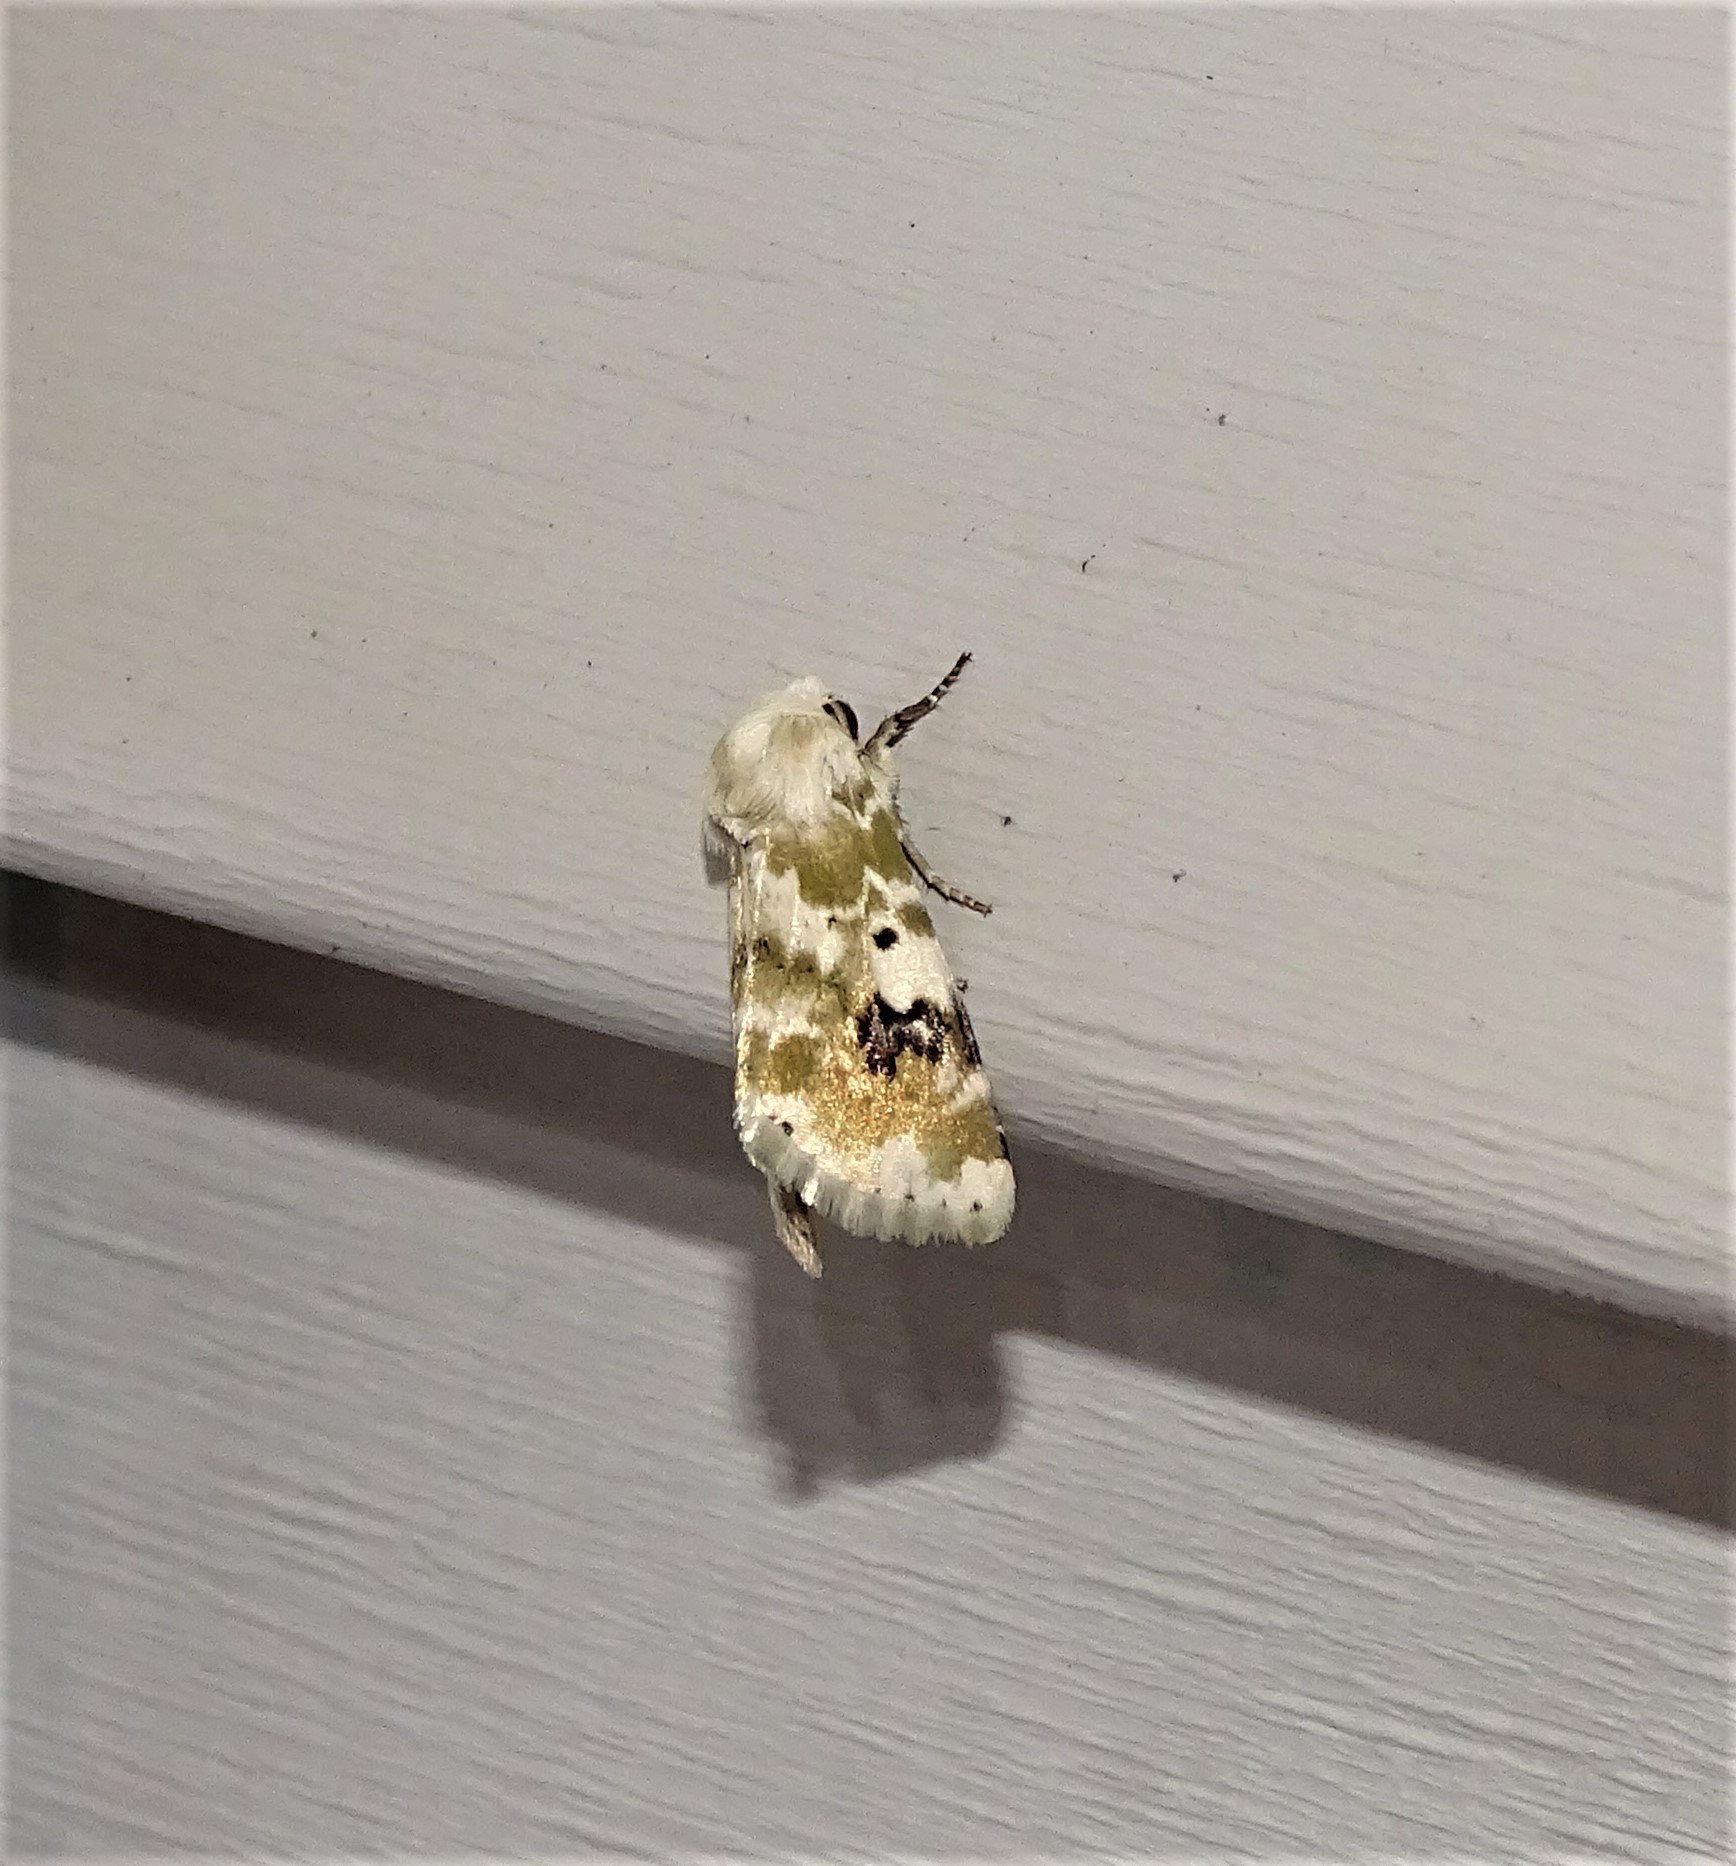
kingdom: Animalia
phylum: Arthropoda
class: Insecta
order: Lepidoptera
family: Noctuidae
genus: Schinia
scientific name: Schinia nundina
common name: Goldenrod flower moth
